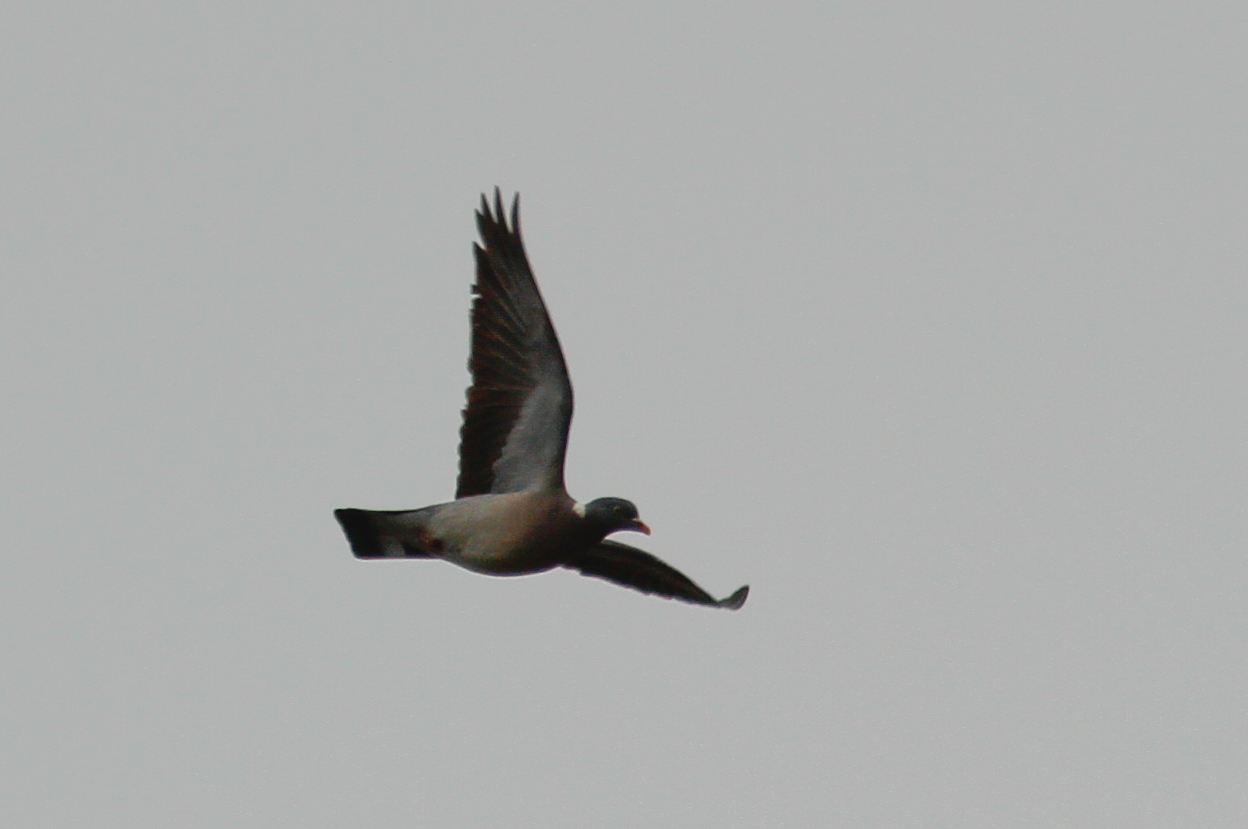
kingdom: Animalia
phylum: Chordata
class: Aves
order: Columbiformes
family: Columbidae
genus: Columba
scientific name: Columba palumbus
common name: Common wood pigeon
